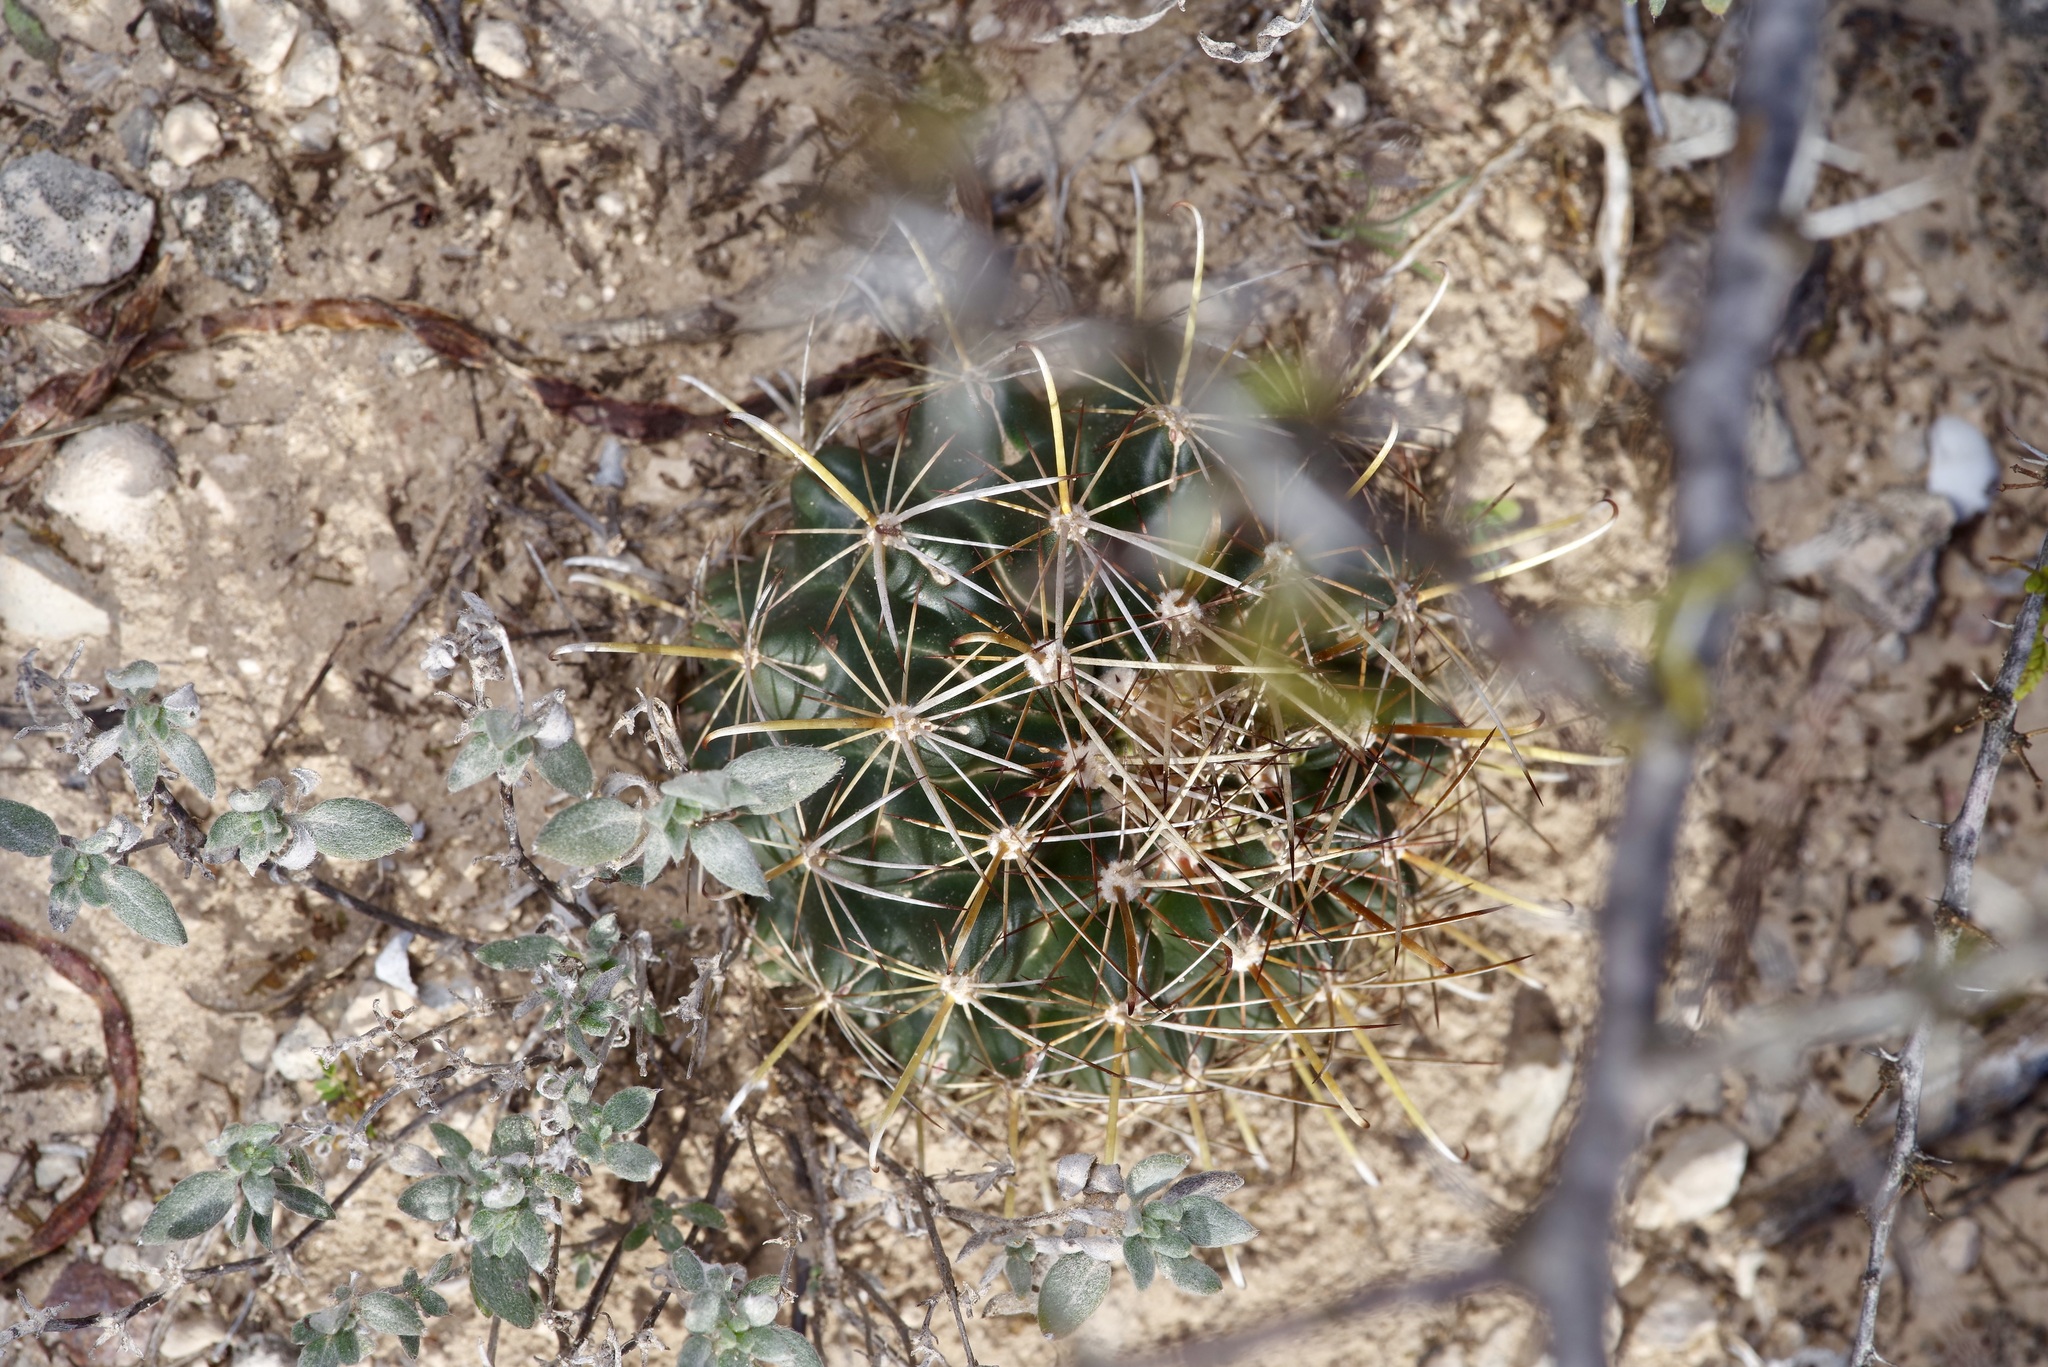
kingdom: Plantae
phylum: Tracheophyta
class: Magnoliopsida
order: Caryophyllales
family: Cactaceae
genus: Sclerocactus
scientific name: Sclerocactus brevihamatus
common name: Engelmann's fishhook cactus
